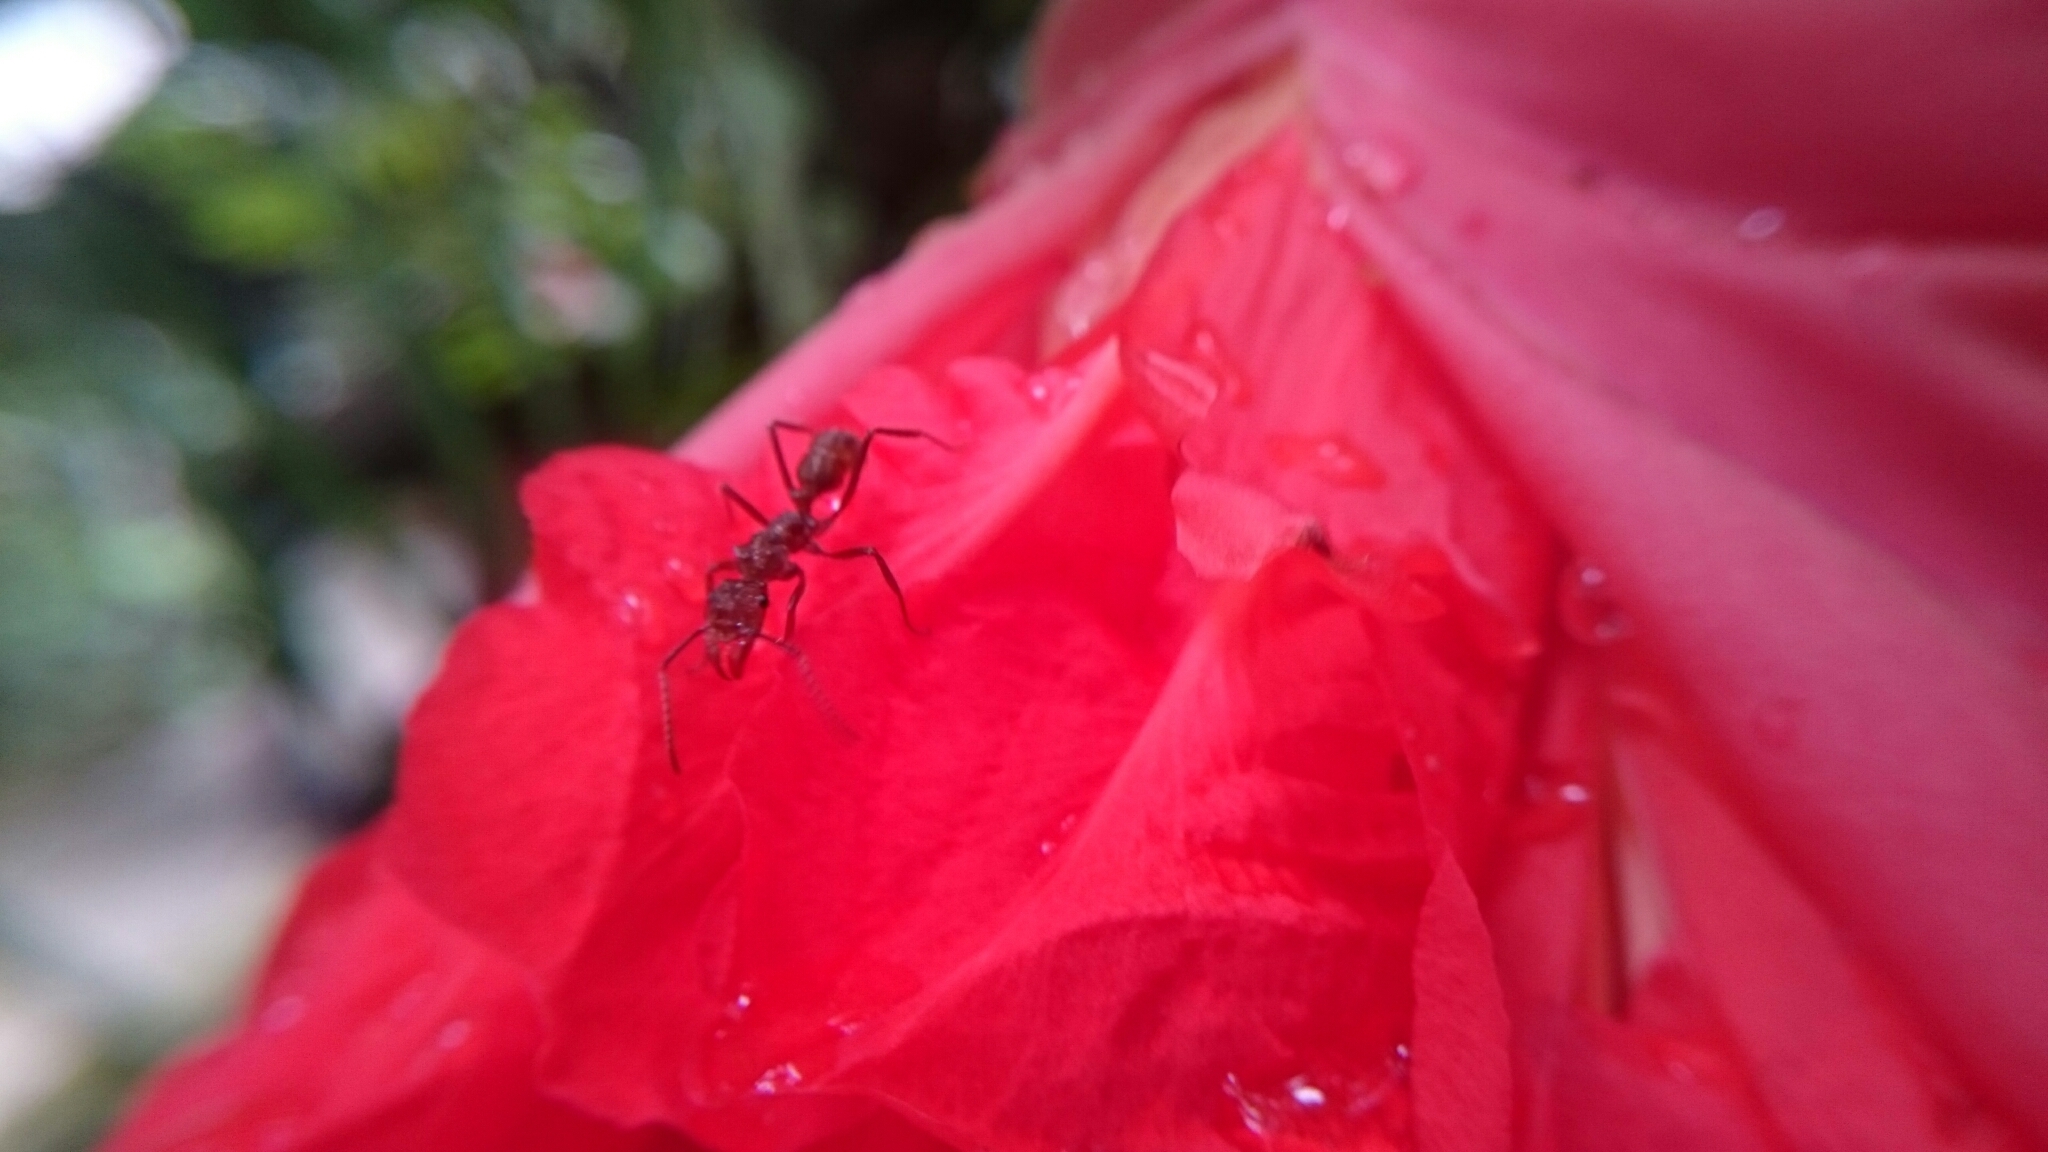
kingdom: Animalia
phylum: Arthropoda
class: Insecta
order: Hymenoptera
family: Formicidae
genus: Ectatomma
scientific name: Ectatomma tuberculatum
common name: Ant
